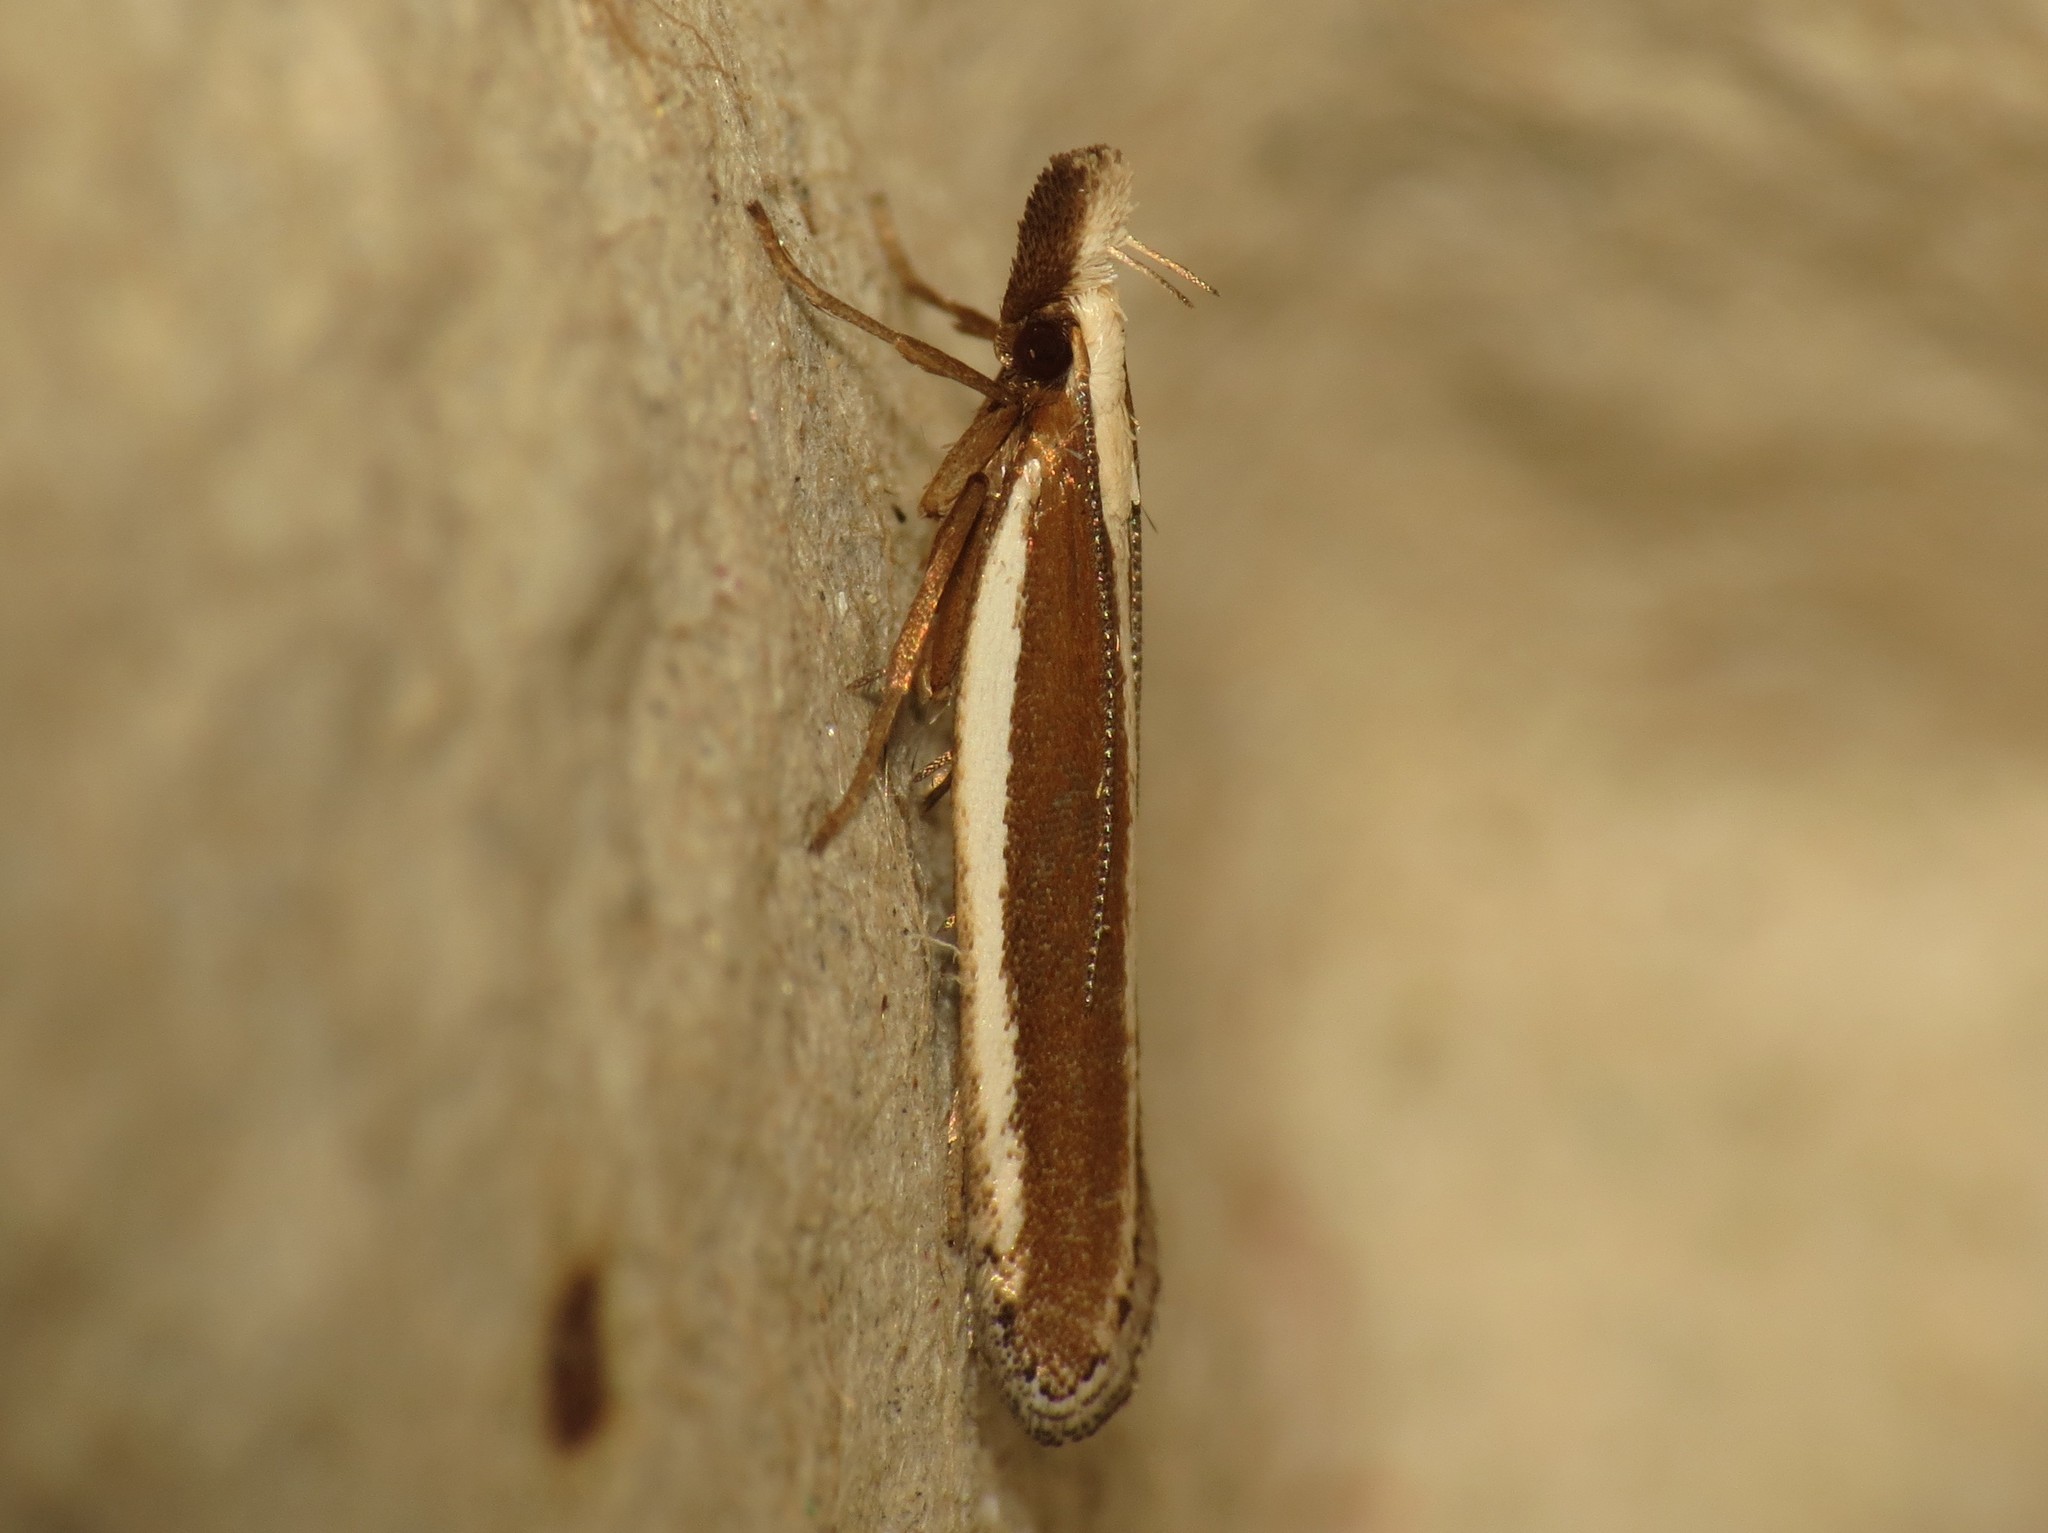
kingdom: Animalia
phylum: Arthropoda
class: Insecta
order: Lepidoptera
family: Gelechiidae
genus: Dichomeris
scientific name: Dichomeris marginella
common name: Juniper webworm
